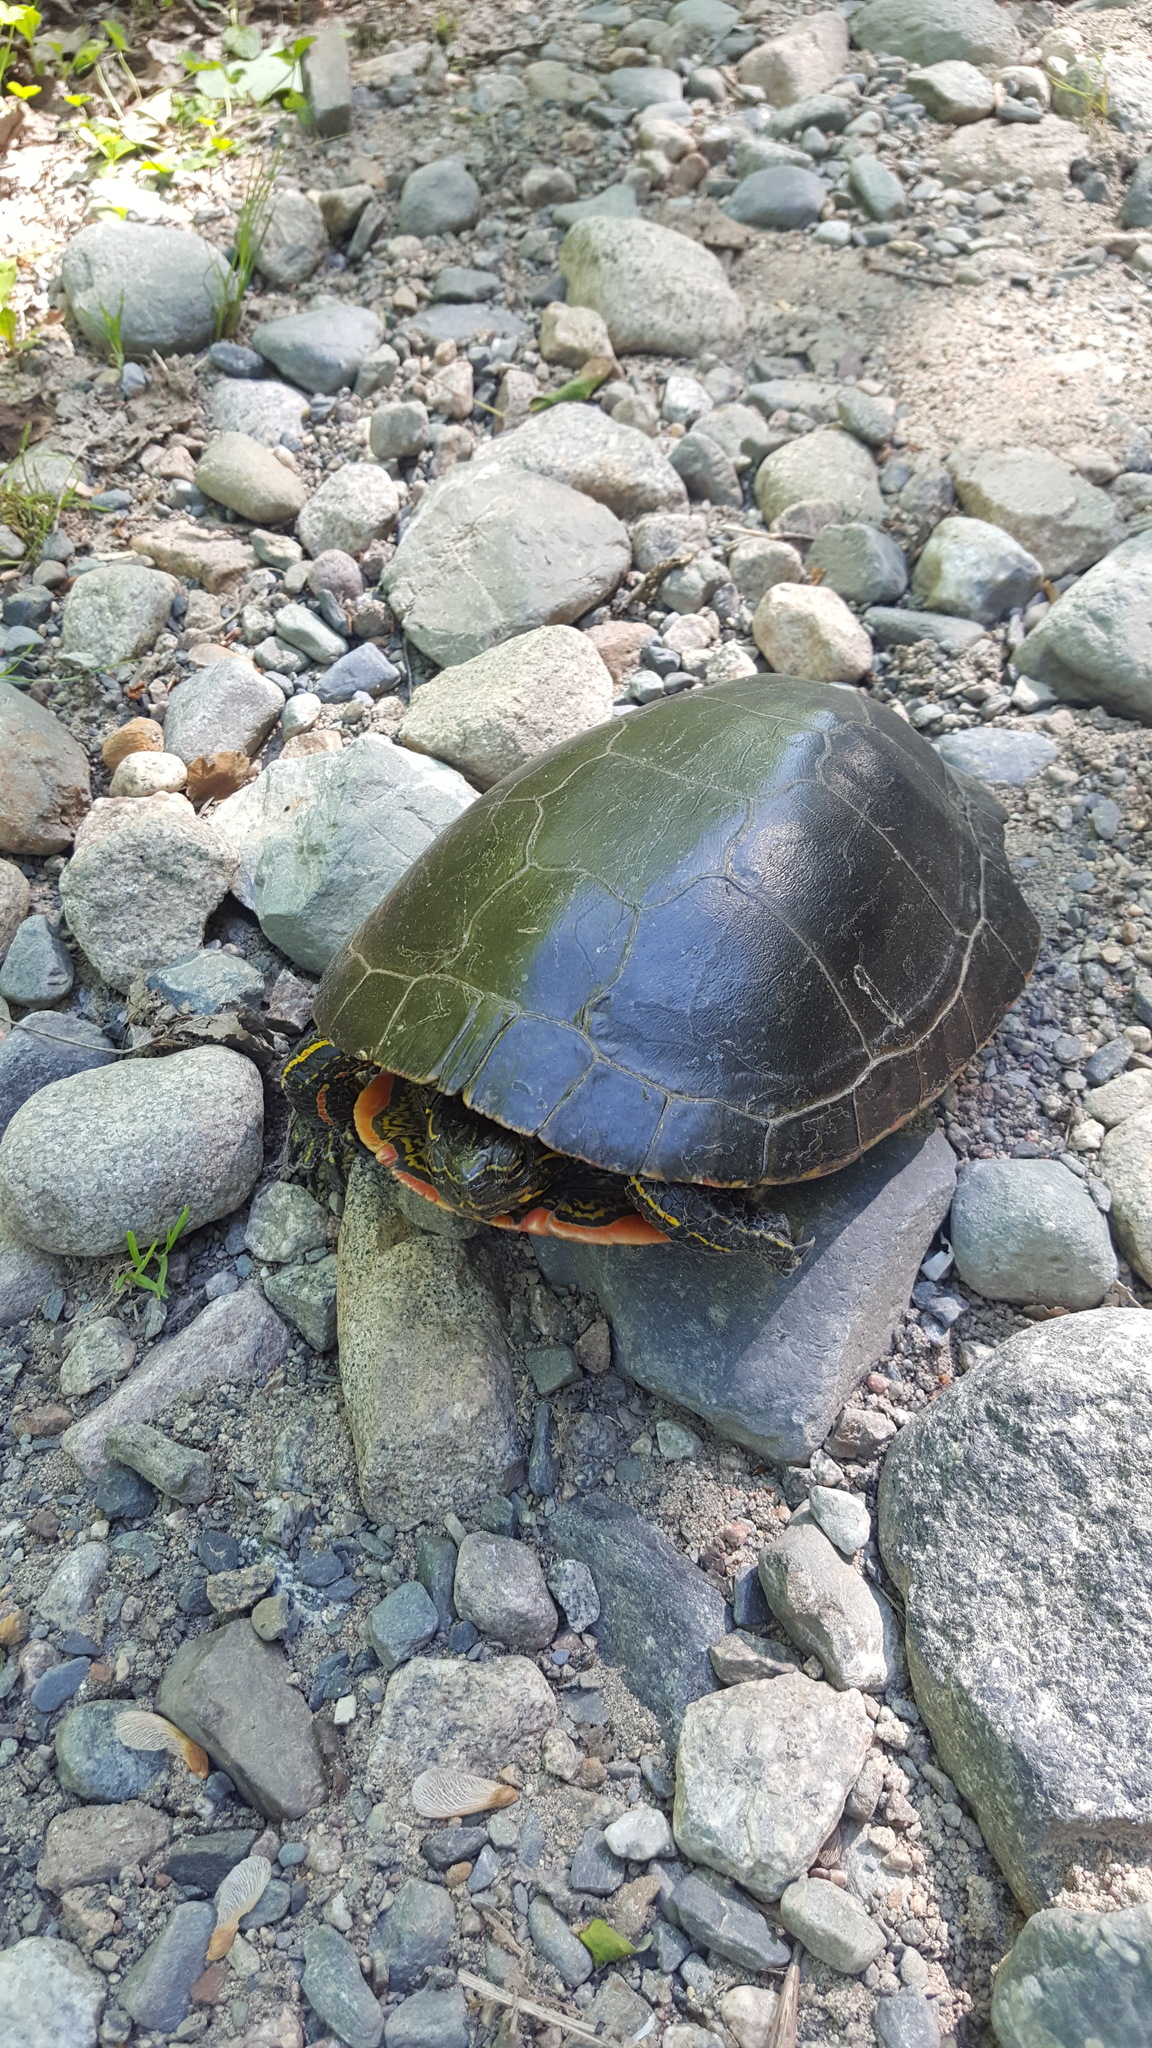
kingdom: Animalia
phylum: Chordata
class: Testudines
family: Emydidae
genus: Chrysemys
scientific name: Chrysemys picta
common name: Painted turtle
